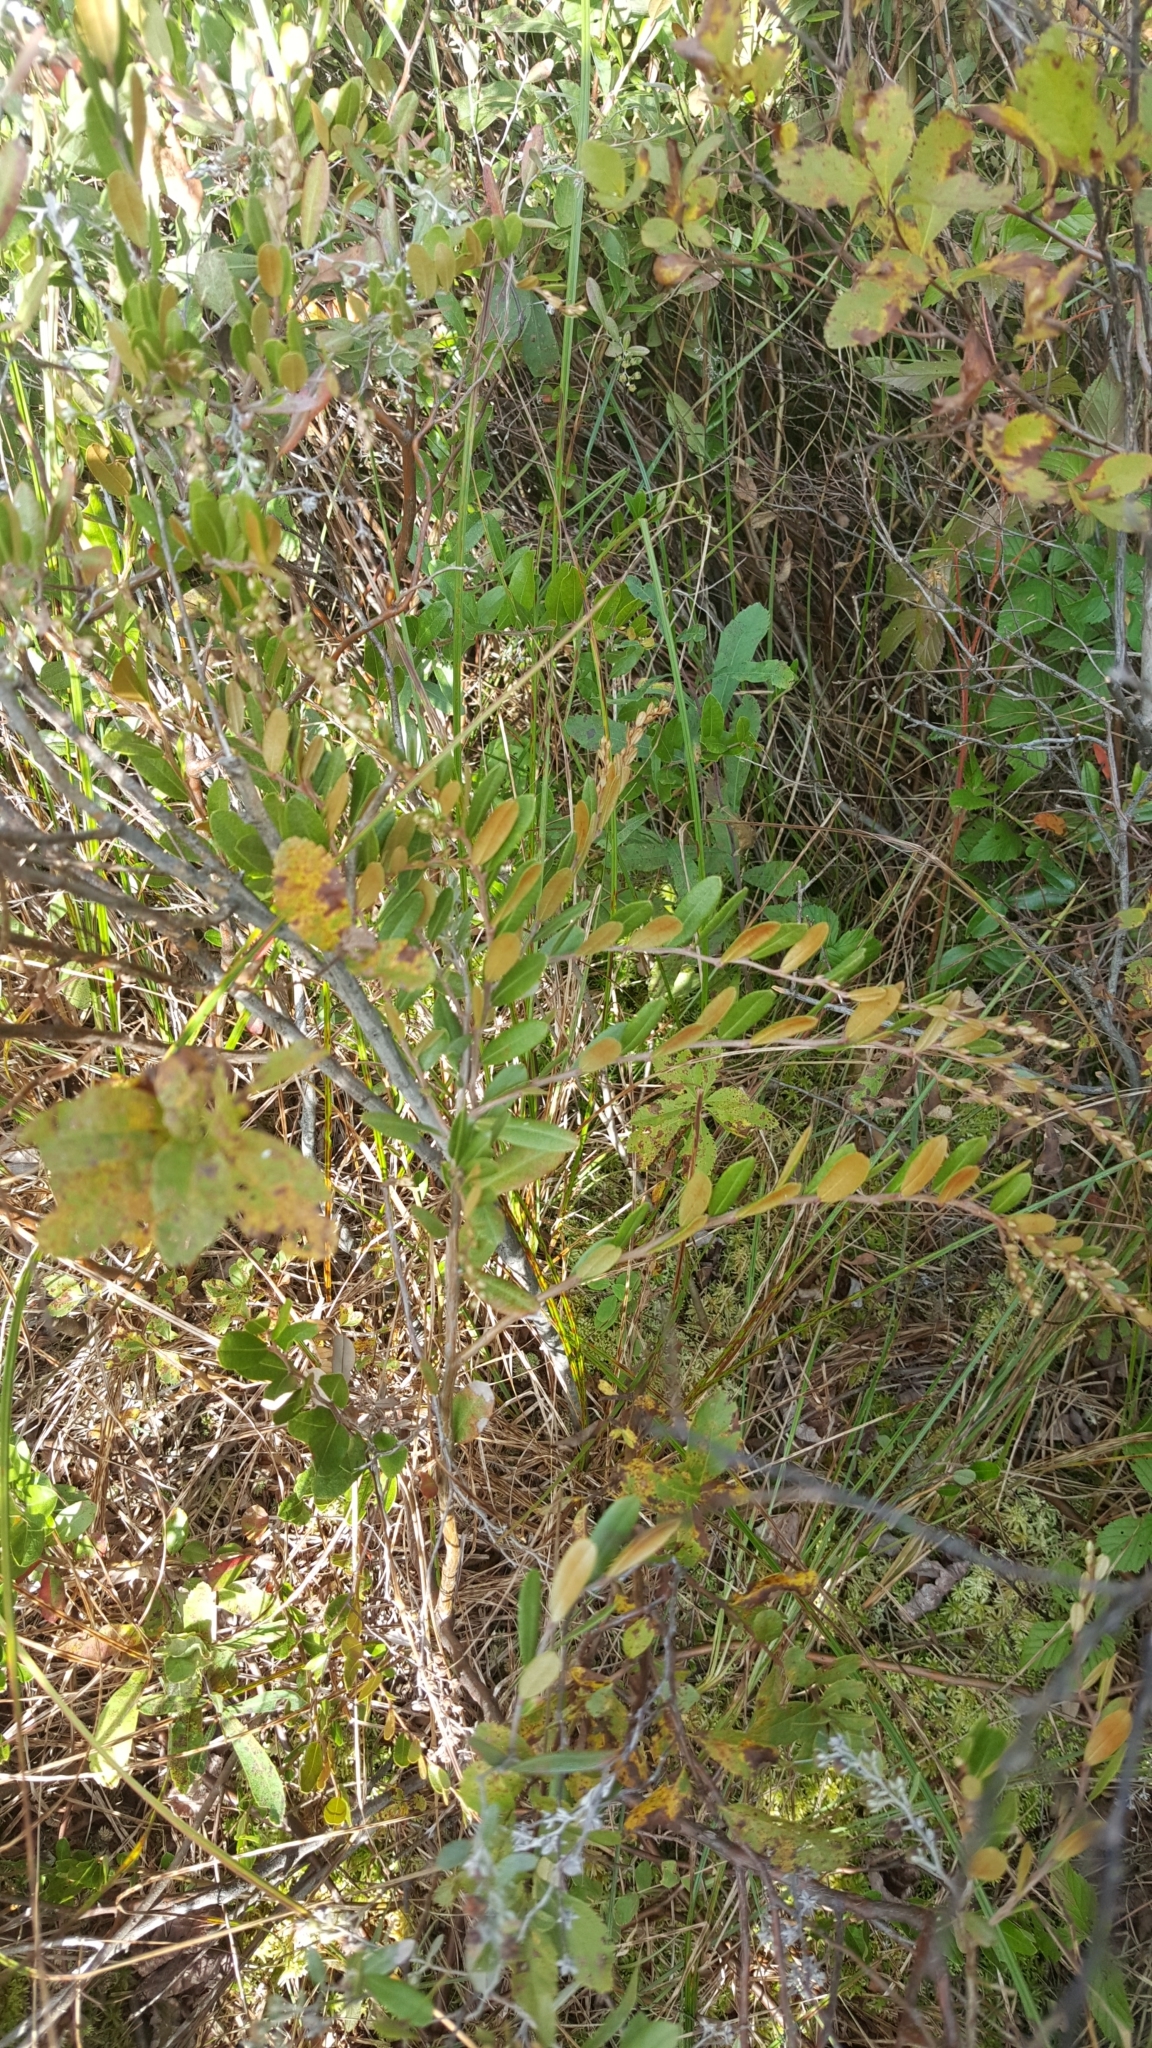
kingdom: Plantae
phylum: Tracheophyta
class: Magnoliopsida
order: Ericales
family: Ericaceae
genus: Chamaedaphne
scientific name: Chamaedaphne calyculata
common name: Leatherleaf
